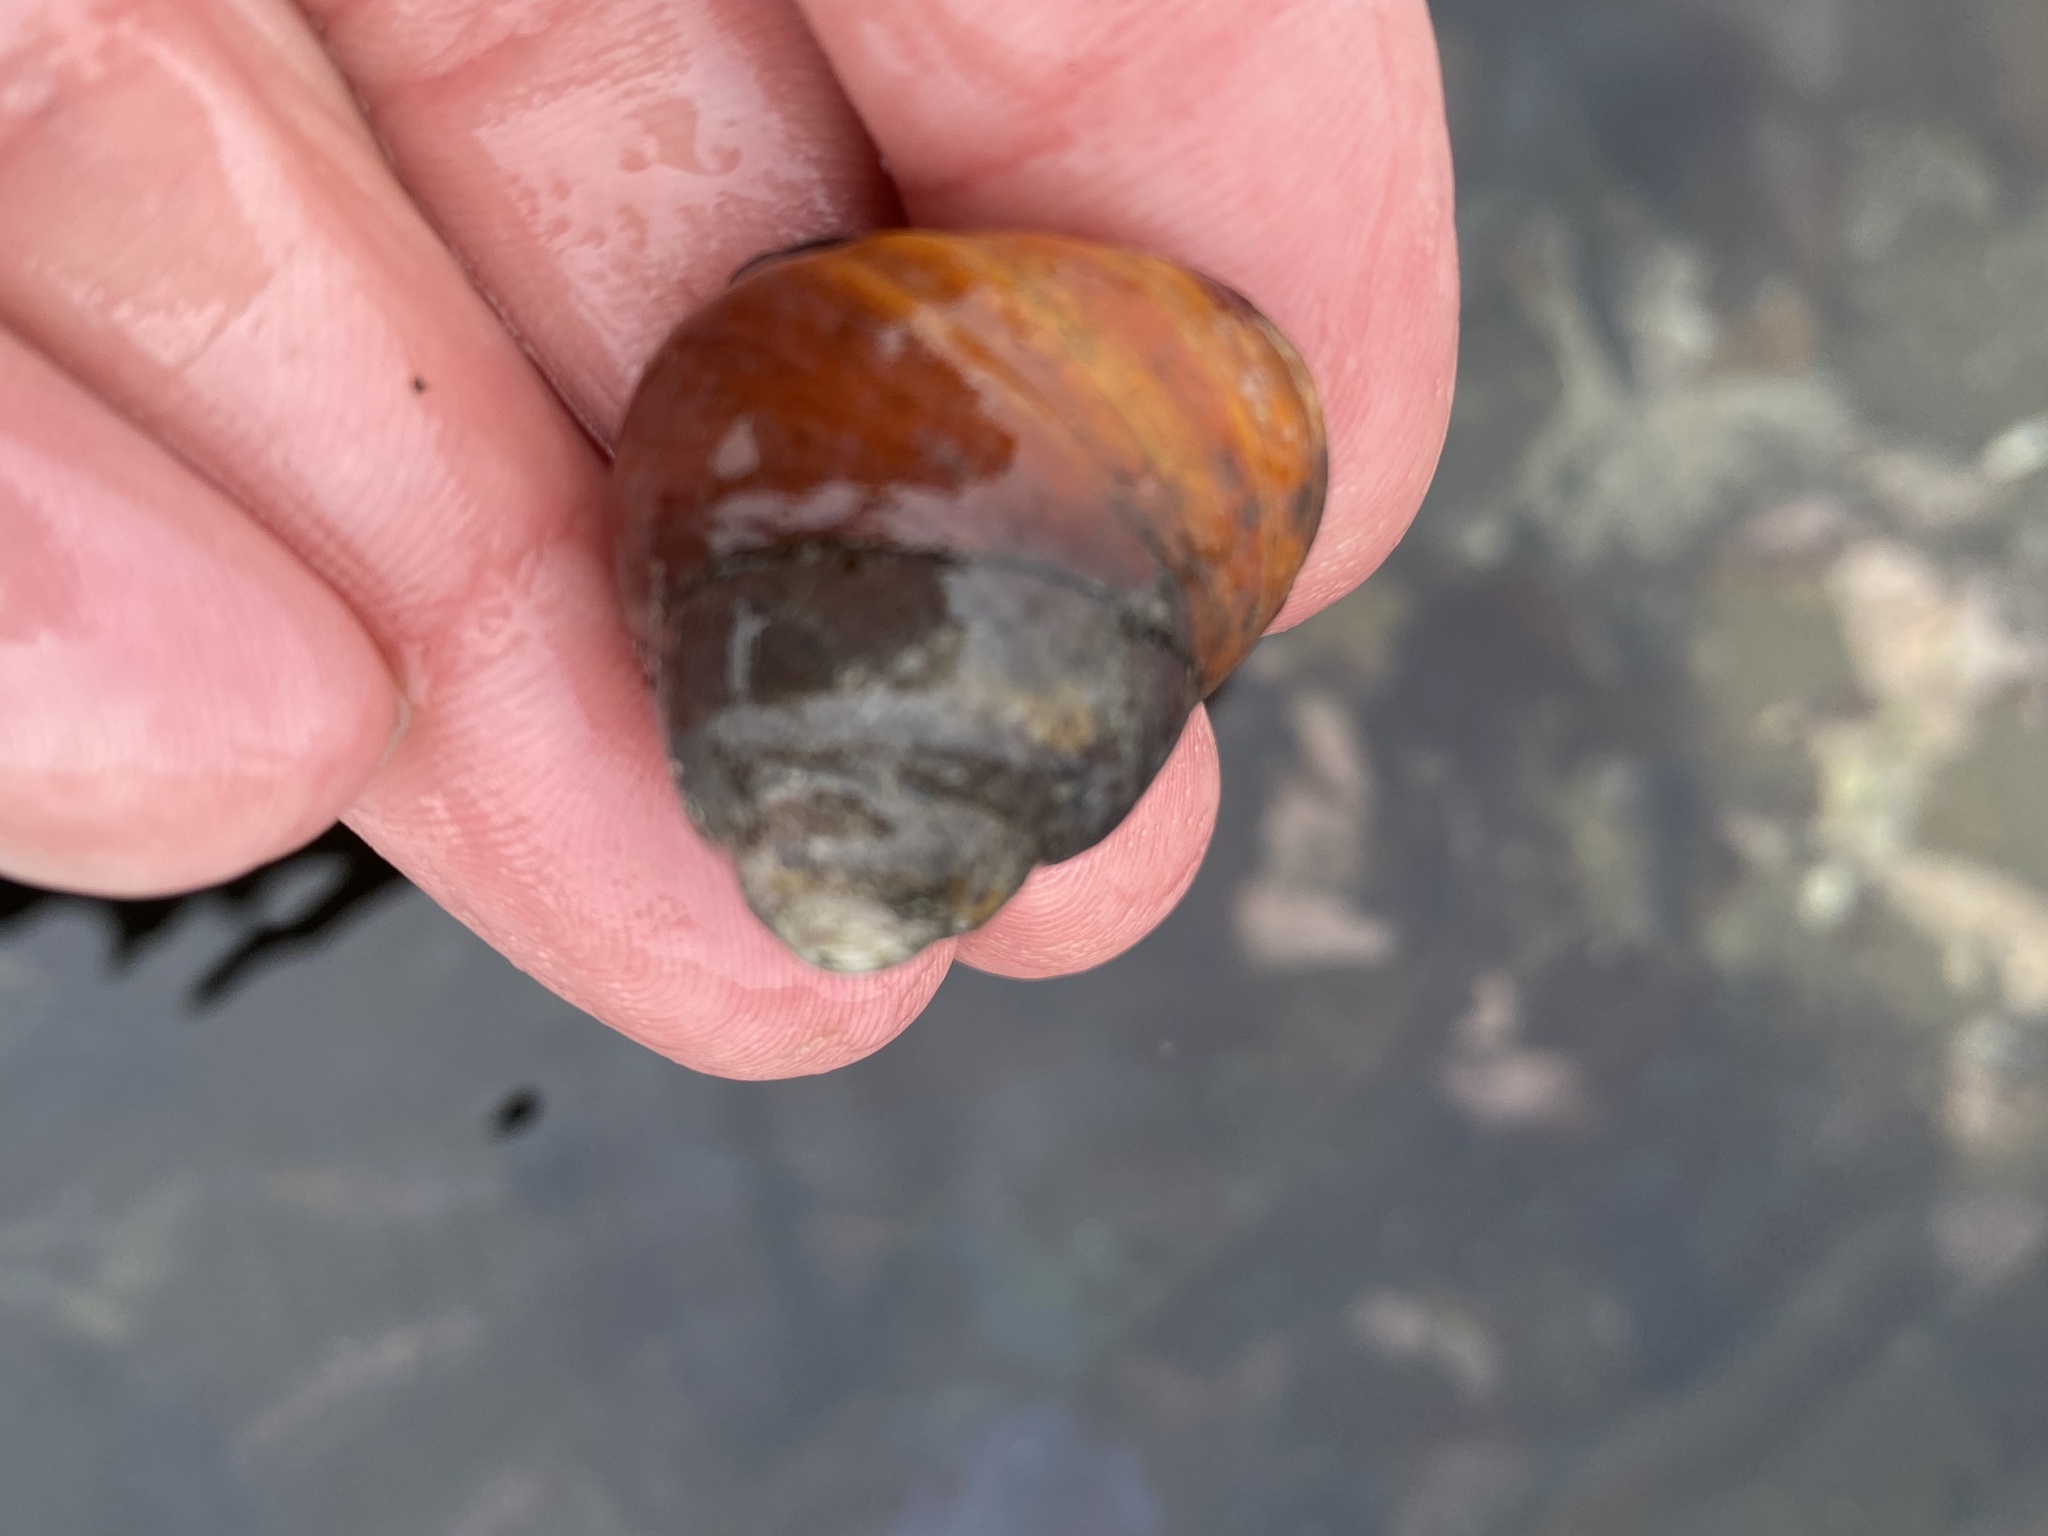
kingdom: Animalia
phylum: Mollusca
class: Gastropoda
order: Trochida
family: Tegulidae
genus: Tegula
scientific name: Tegula brunnea
